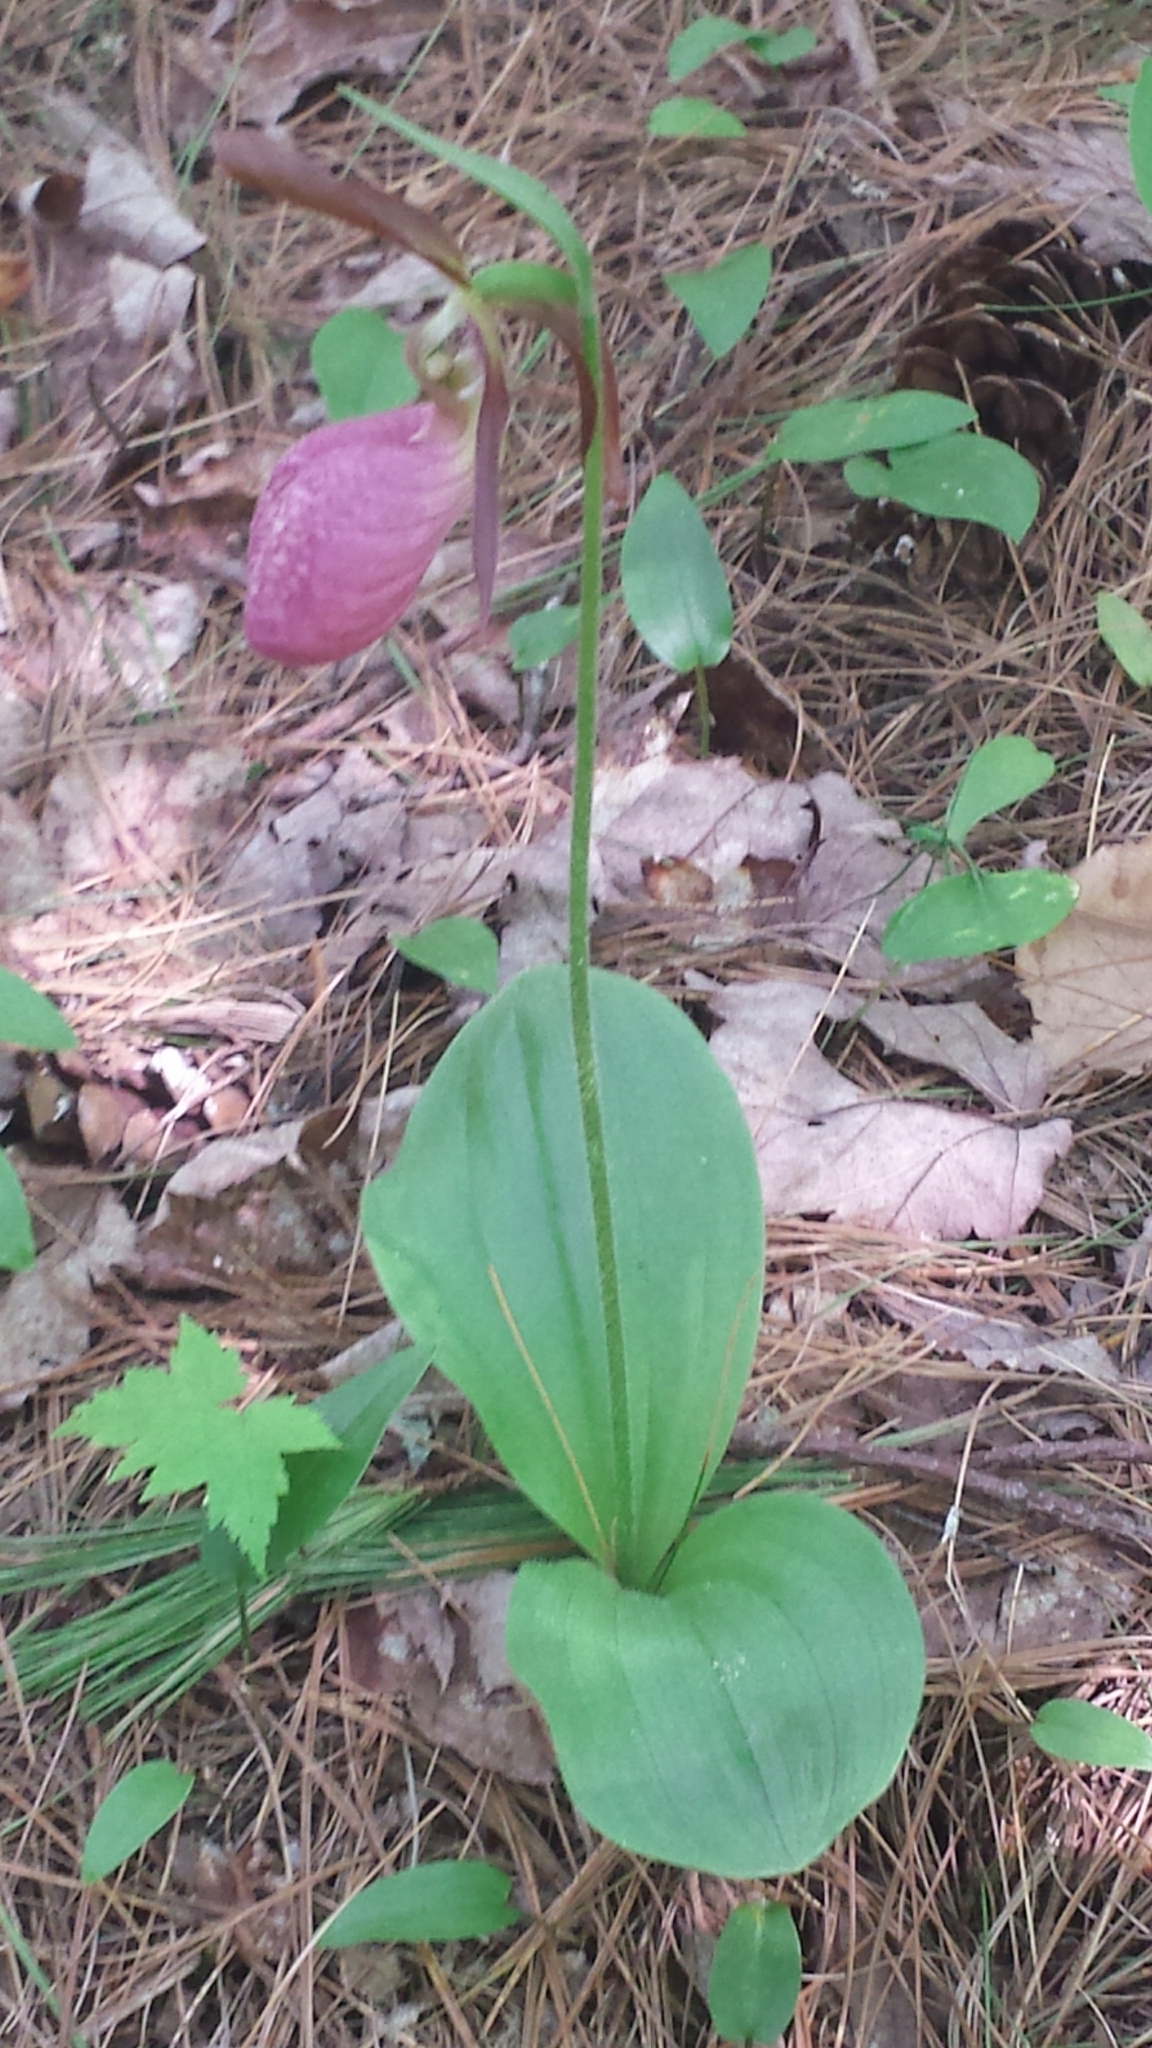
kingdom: Plantae
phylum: Tracheophyta
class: Liliopsida
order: Asparagales
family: Orchidaceae
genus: Cypripedium
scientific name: Cypripedium acaule
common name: Pink lady's-slipper
